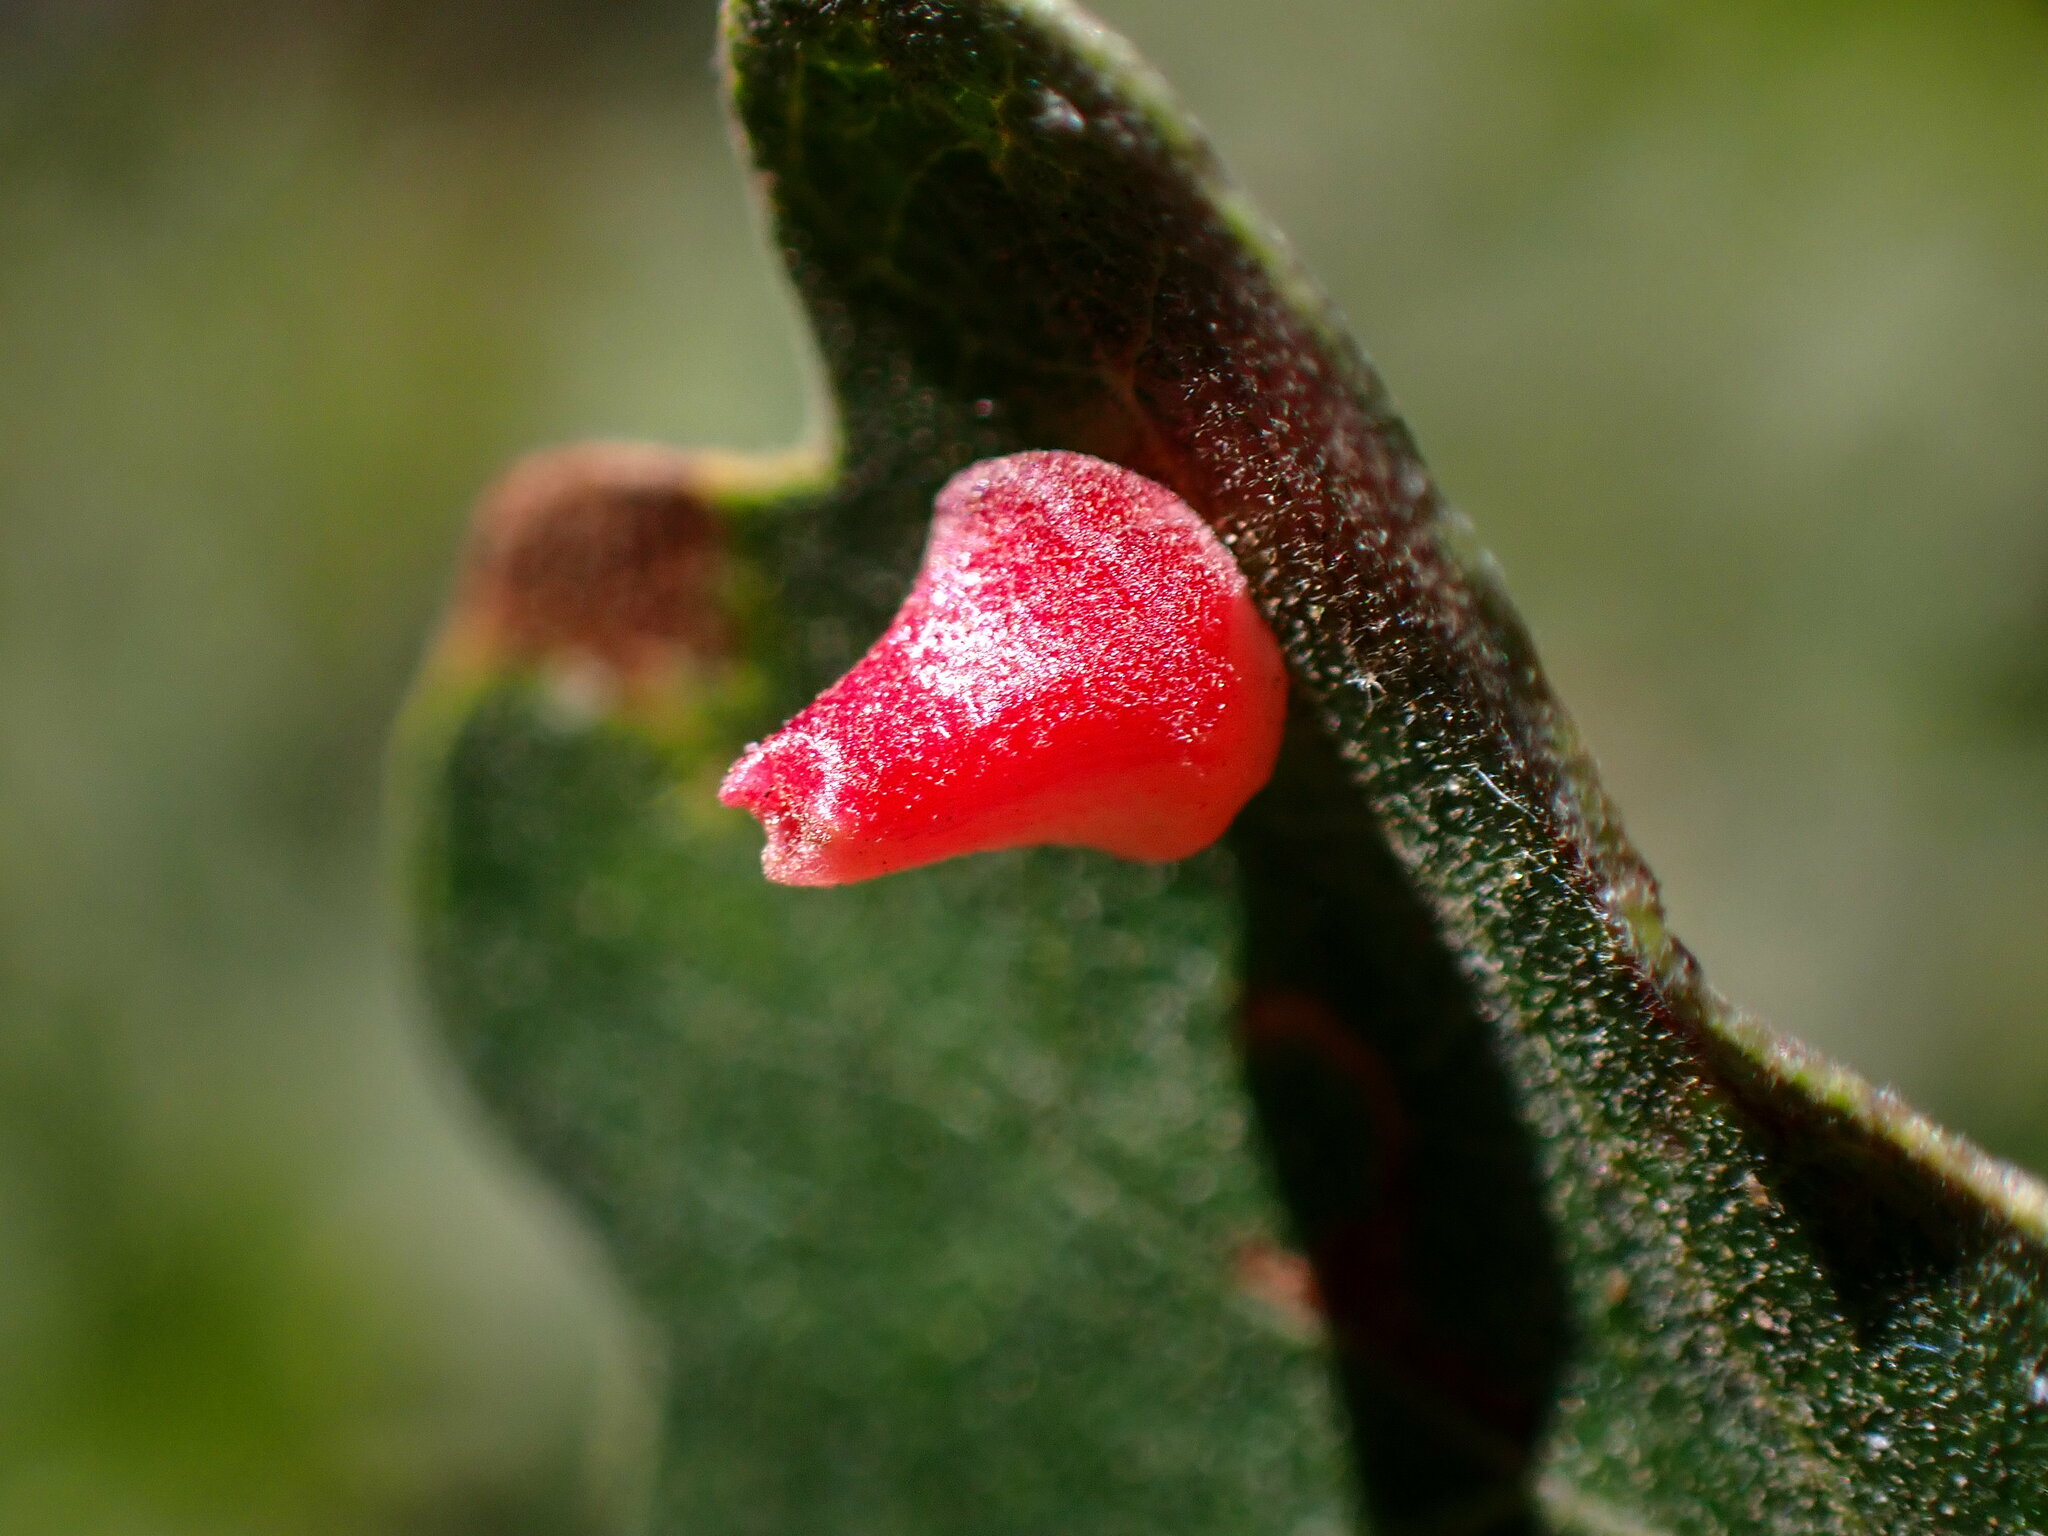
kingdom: Animalia
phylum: Arthropoda
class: Insecta
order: Hymenoptera
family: Cynipidae
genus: Andricus
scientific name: Andricus
